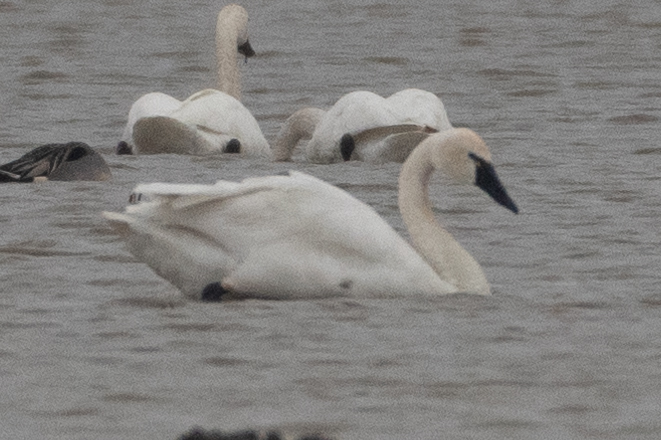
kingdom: Animalia
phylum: Chordata
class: Aves
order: Anseriformes
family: Anatidae
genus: Cygnus
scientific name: Cygnus columbianus
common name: Tundra swan
